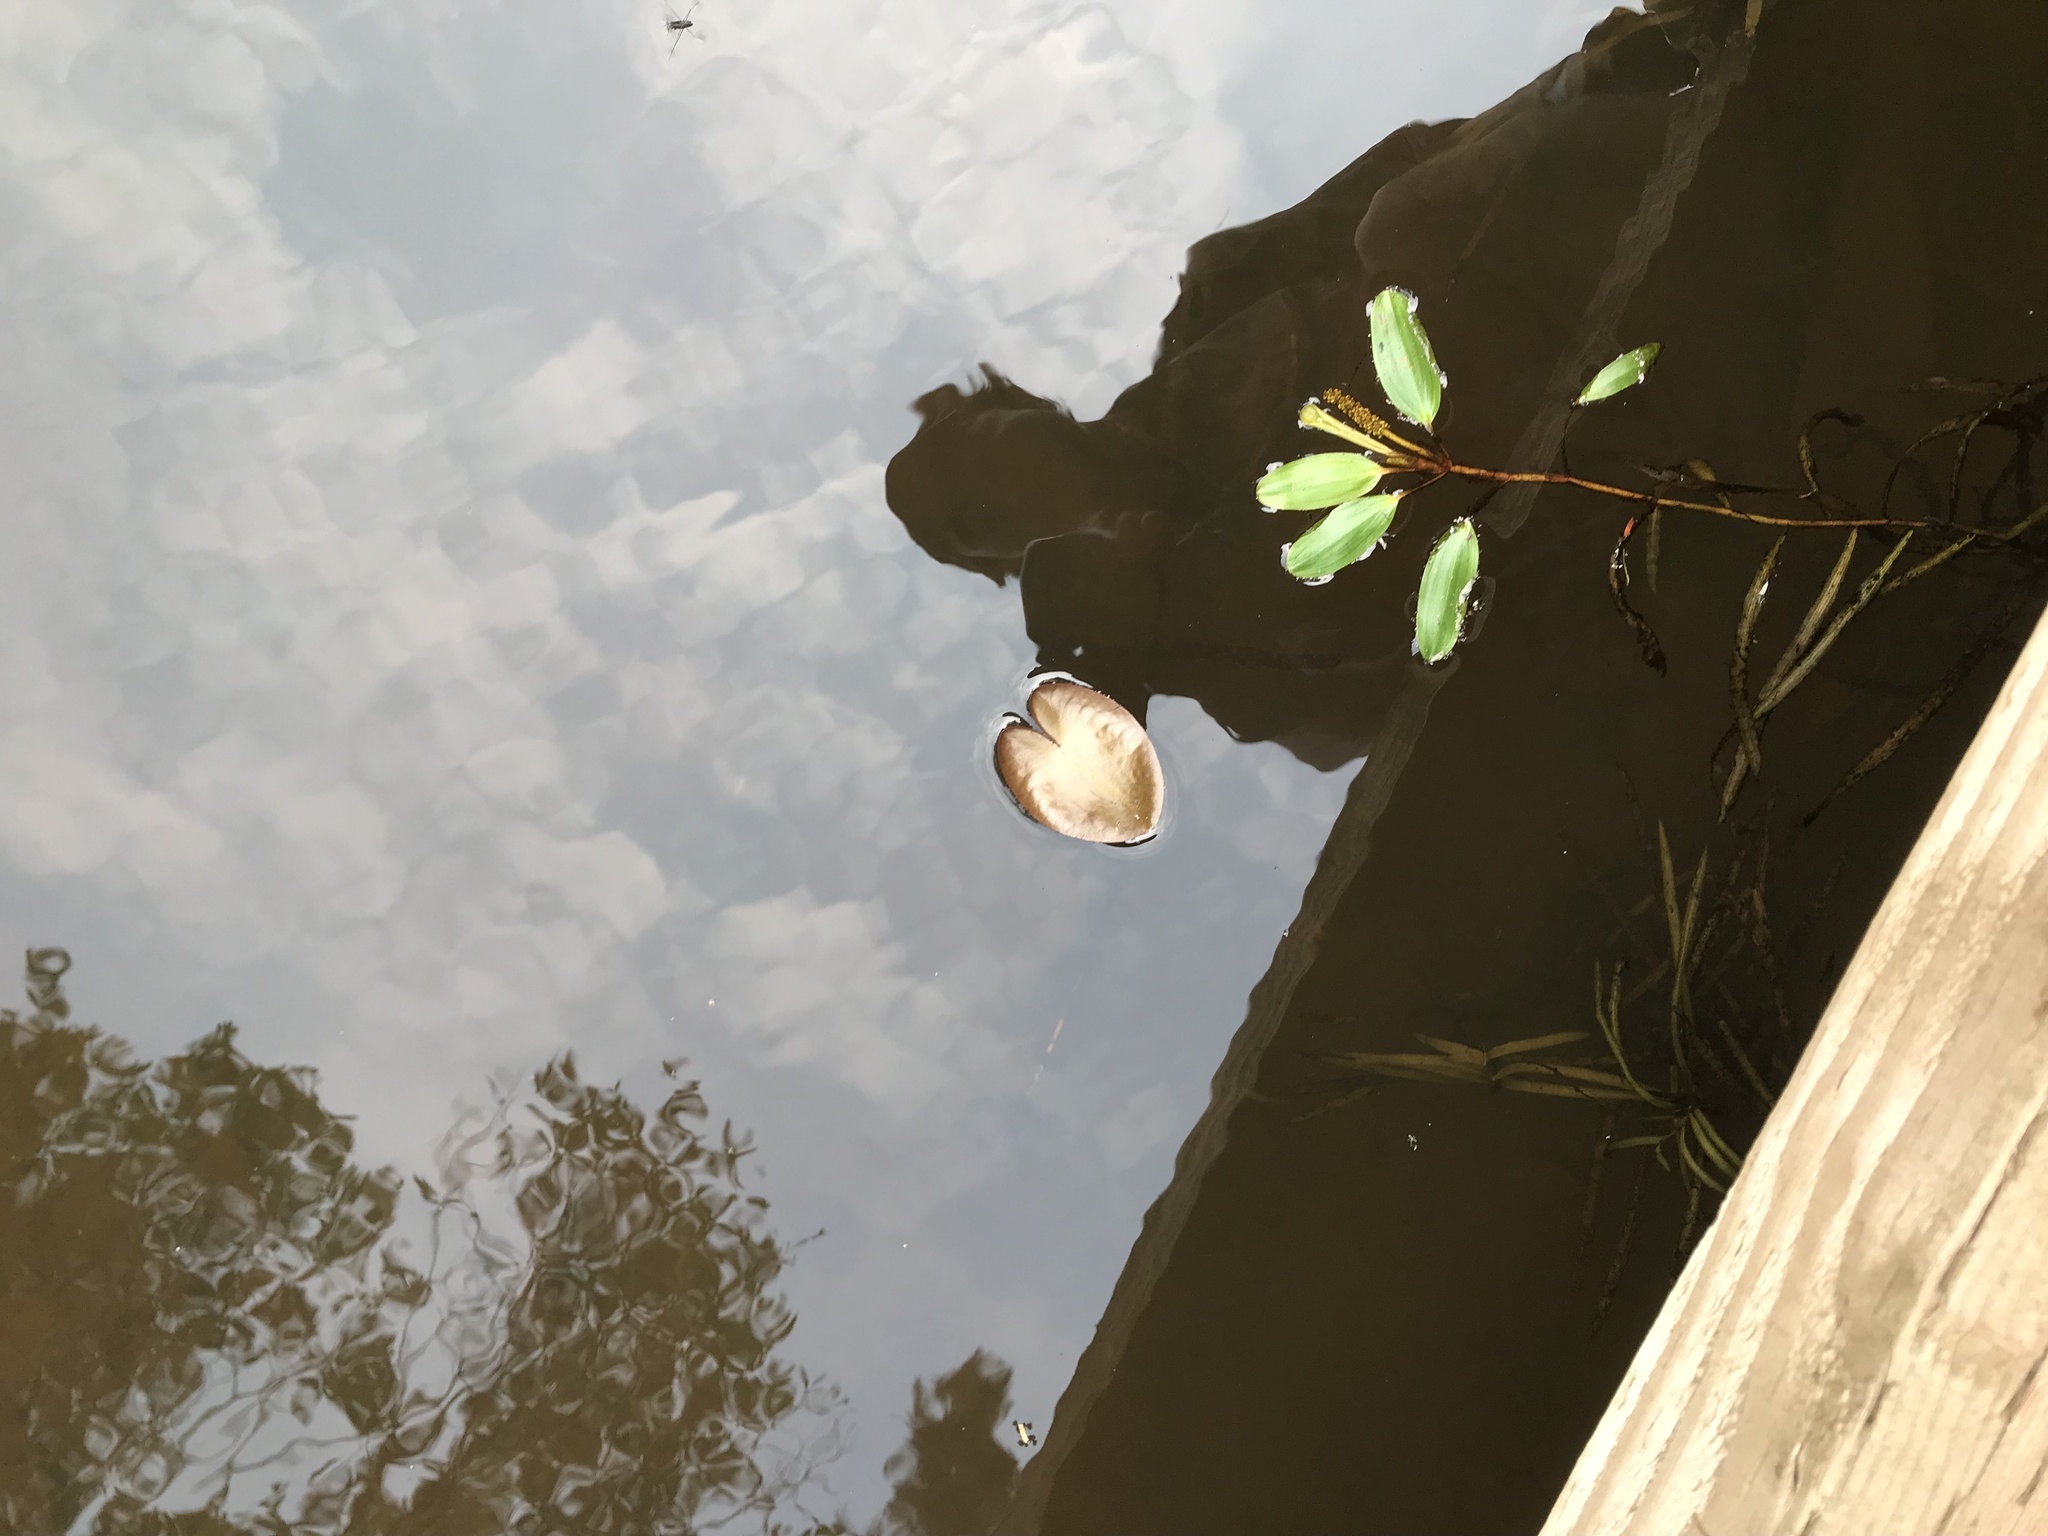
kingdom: Plantae
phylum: Tracheophyta
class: Liliopsida
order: Alismatales
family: Potamogetonaceae
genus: Potamogeton
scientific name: Potamogeton epihydrus
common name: American pondweed
